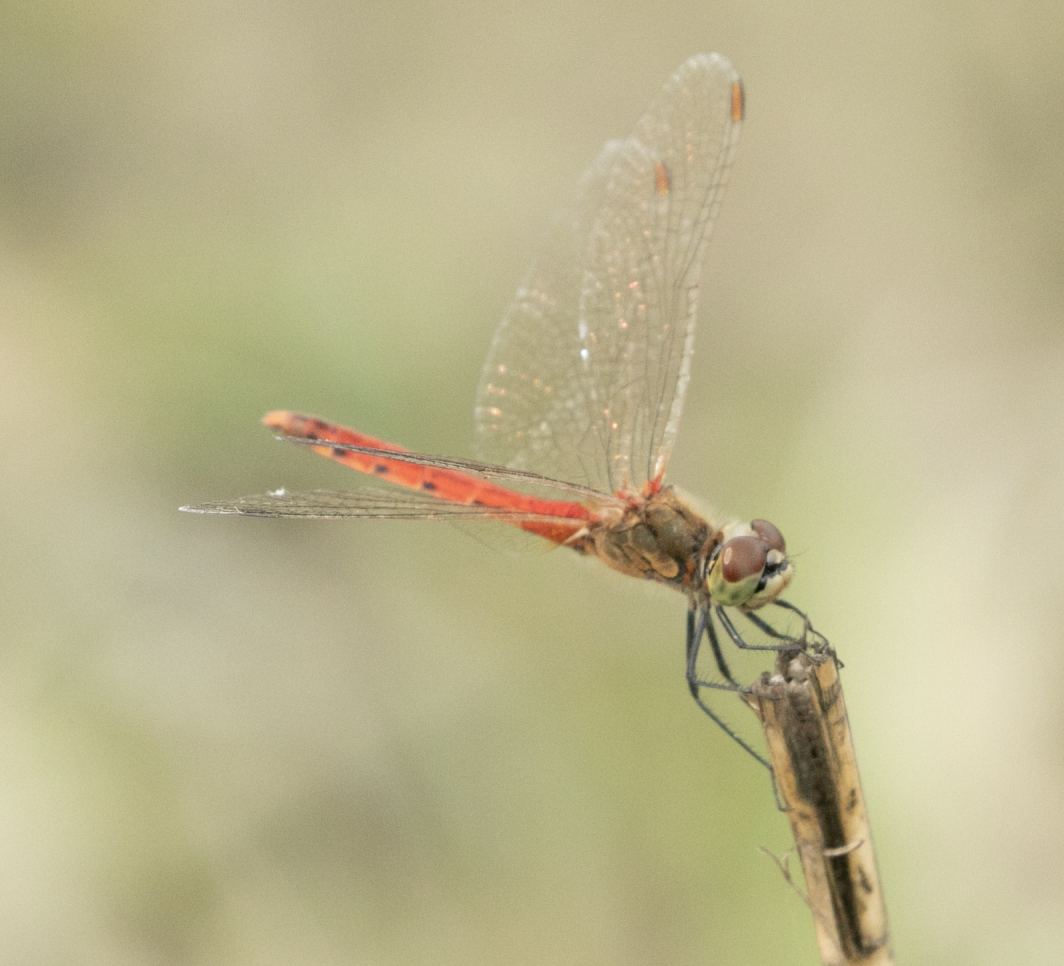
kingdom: Animalia
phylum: Arthropoda
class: Insecta
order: Odonata
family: Libellulidae
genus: Sympetrum
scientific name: Sympetrum depressiusculum
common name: Spotted darter
